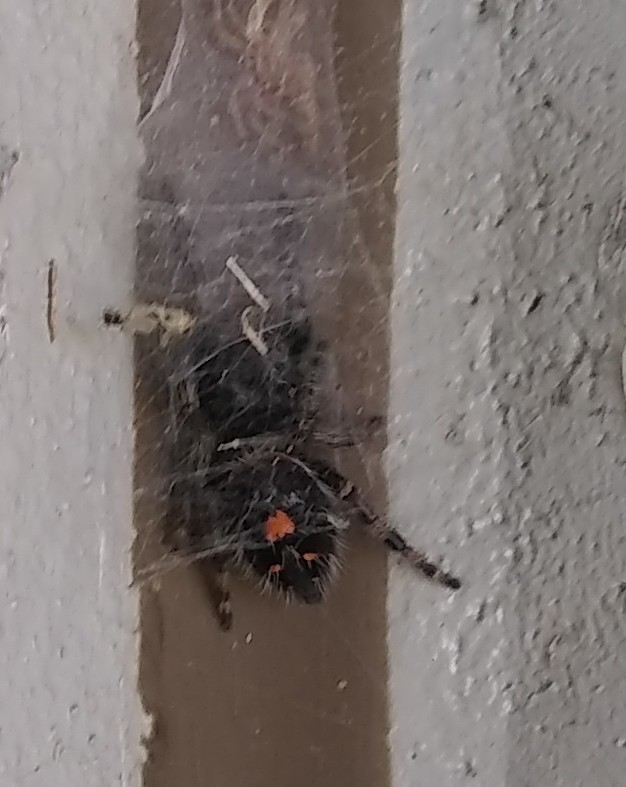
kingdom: Animalia
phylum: Arthropoda
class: Arachnida
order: Araneae
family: Salticidae
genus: Phidippus
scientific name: Phidippus audax
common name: Bold jumper
